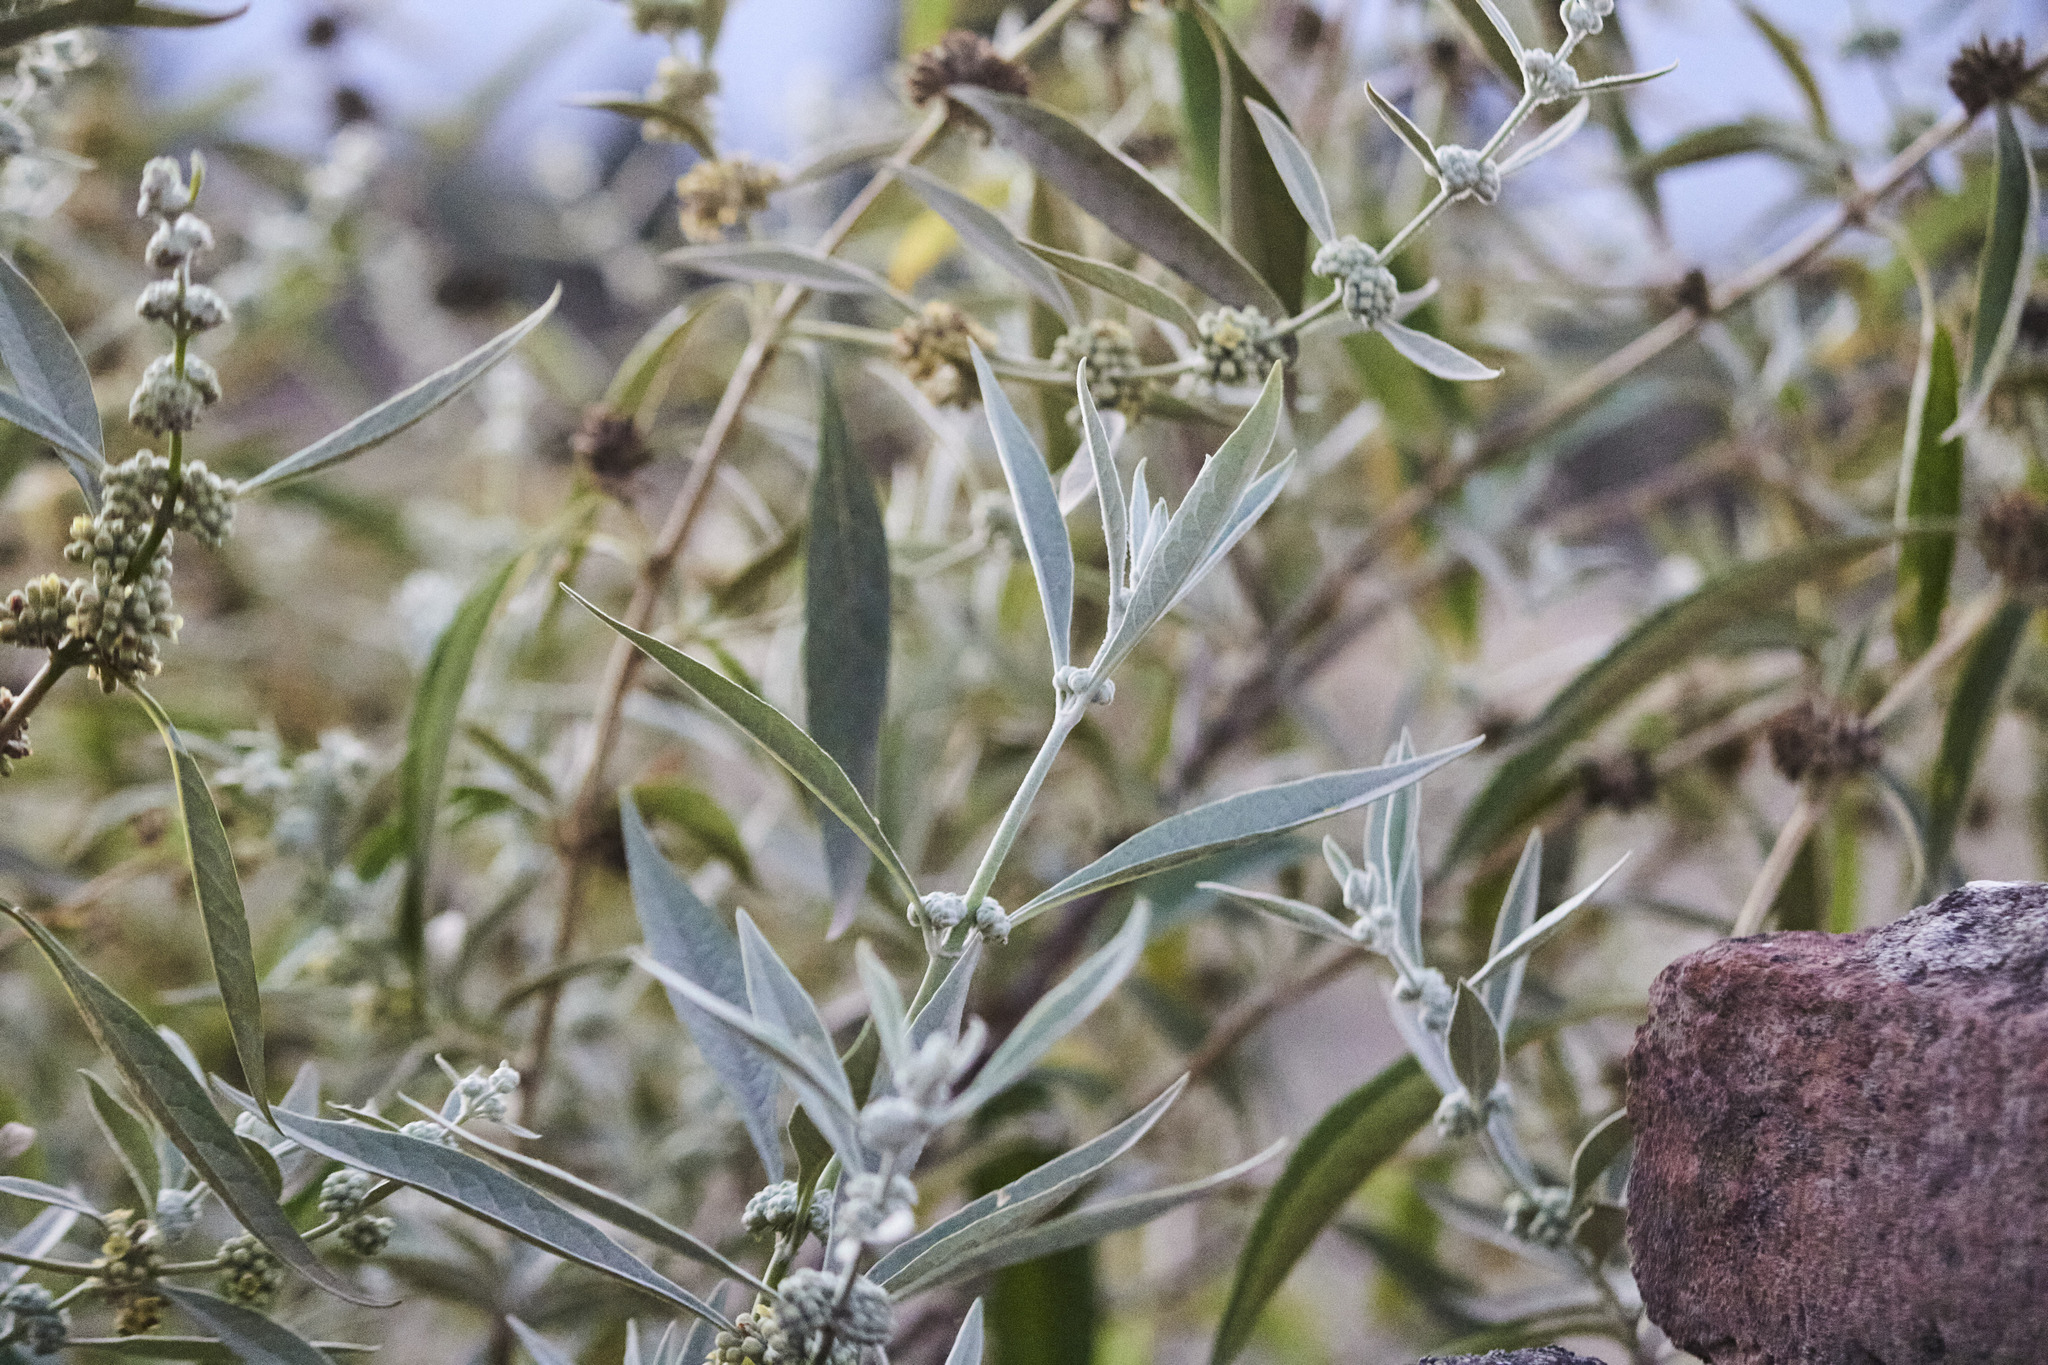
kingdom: Plantae
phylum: Tracheophyta
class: Magnoliopsida
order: Lamiales
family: Scrophulariaceae
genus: Buddleja
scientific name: Buddleja sessiliflora
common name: Rio grande butterfly-bush
